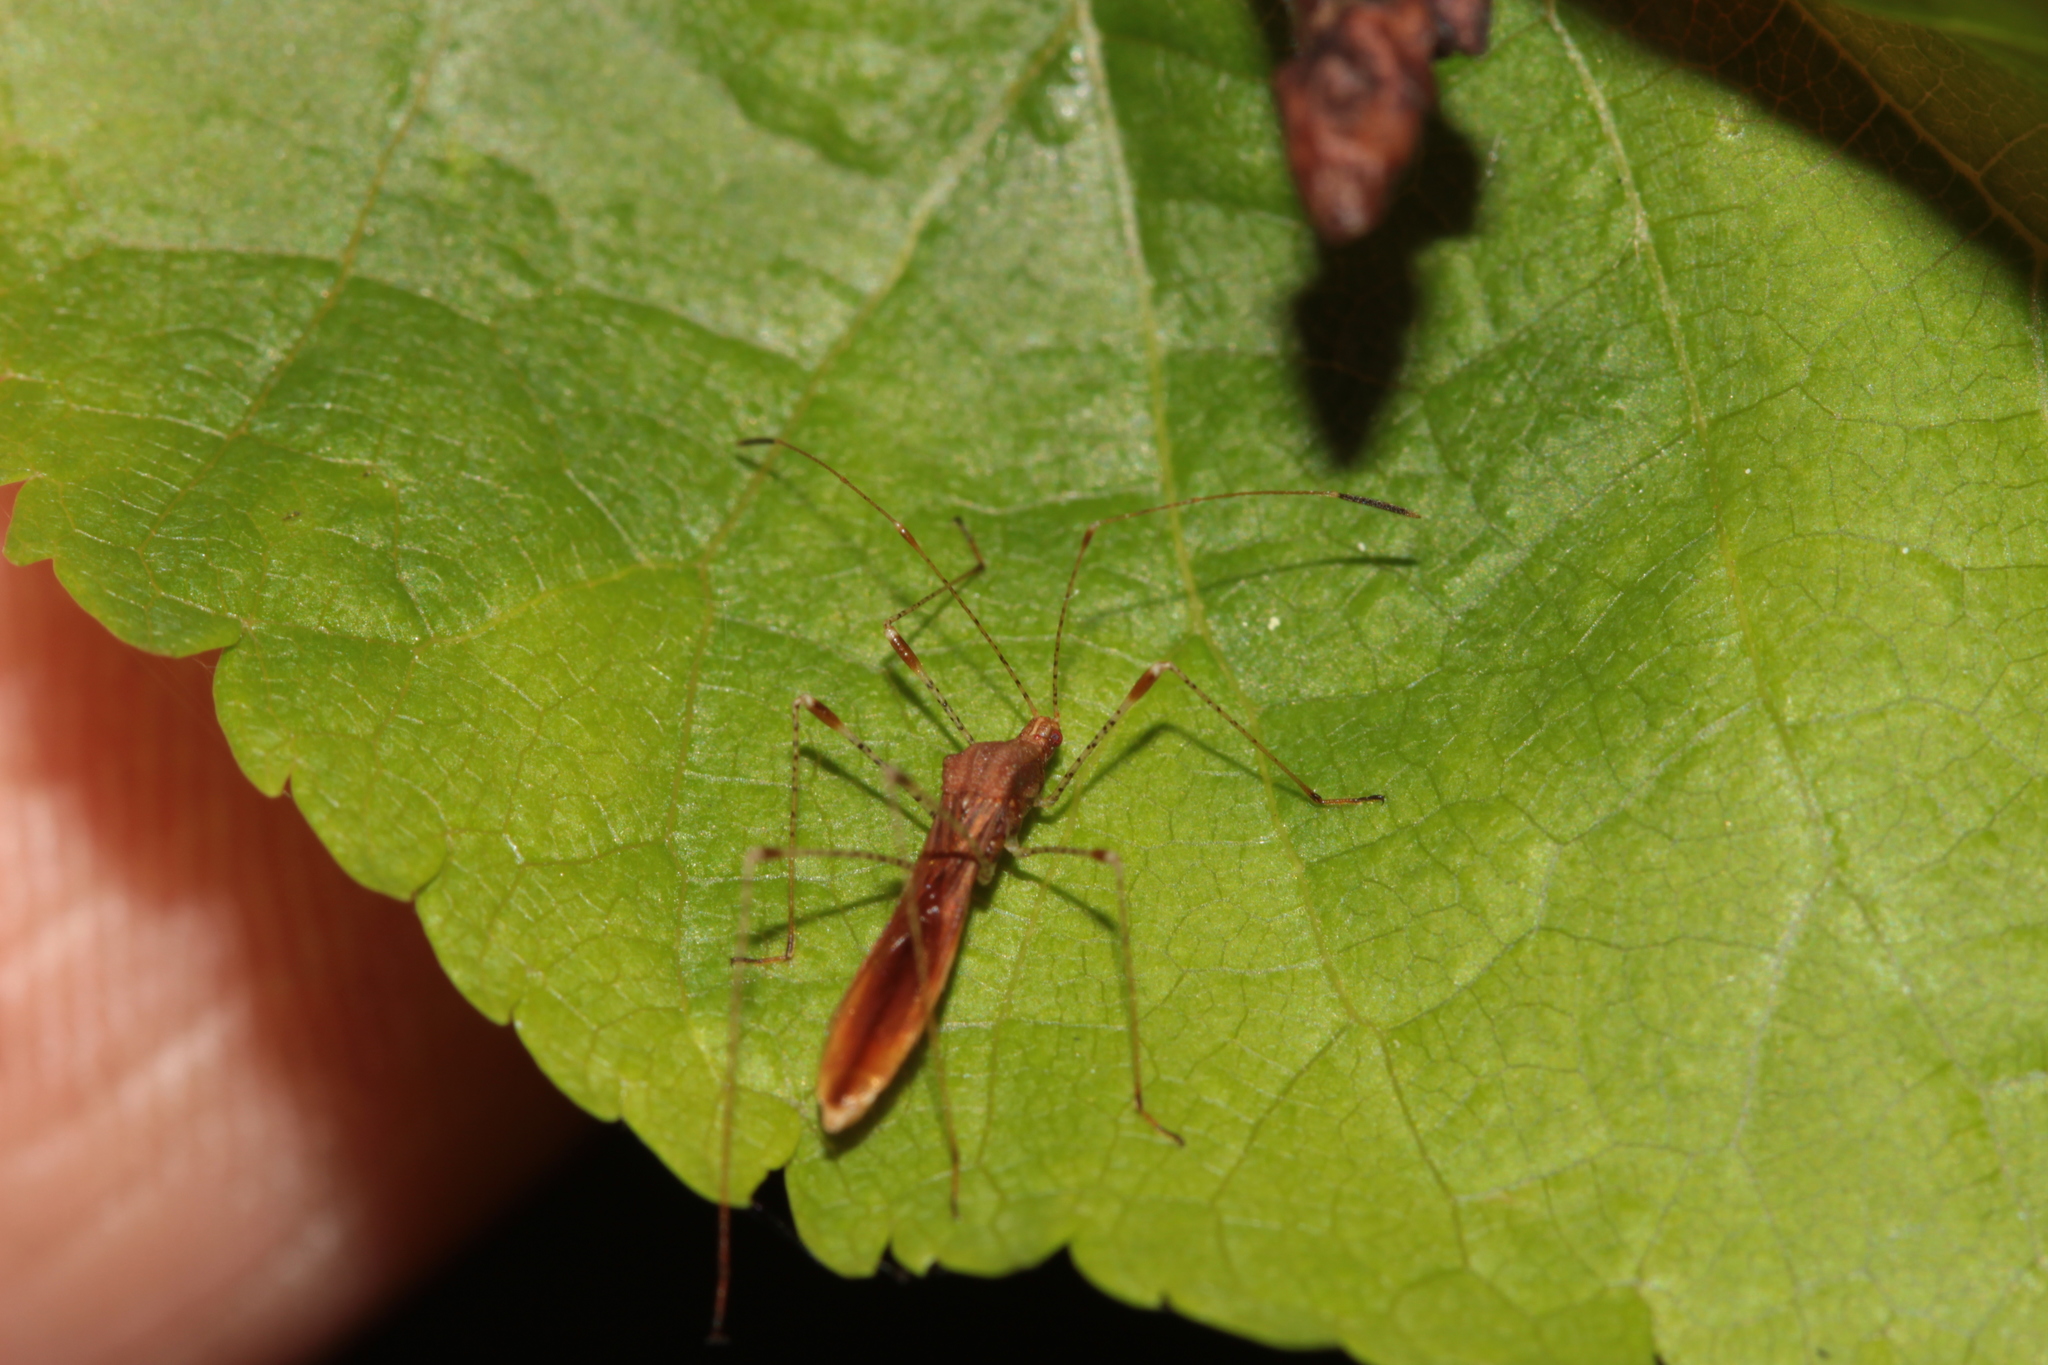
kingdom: Animalia
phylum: Arthropoda
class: Insecta
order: Hemiptera
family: Berytidae
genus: Metatropis
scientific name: Metatropis rufescens
